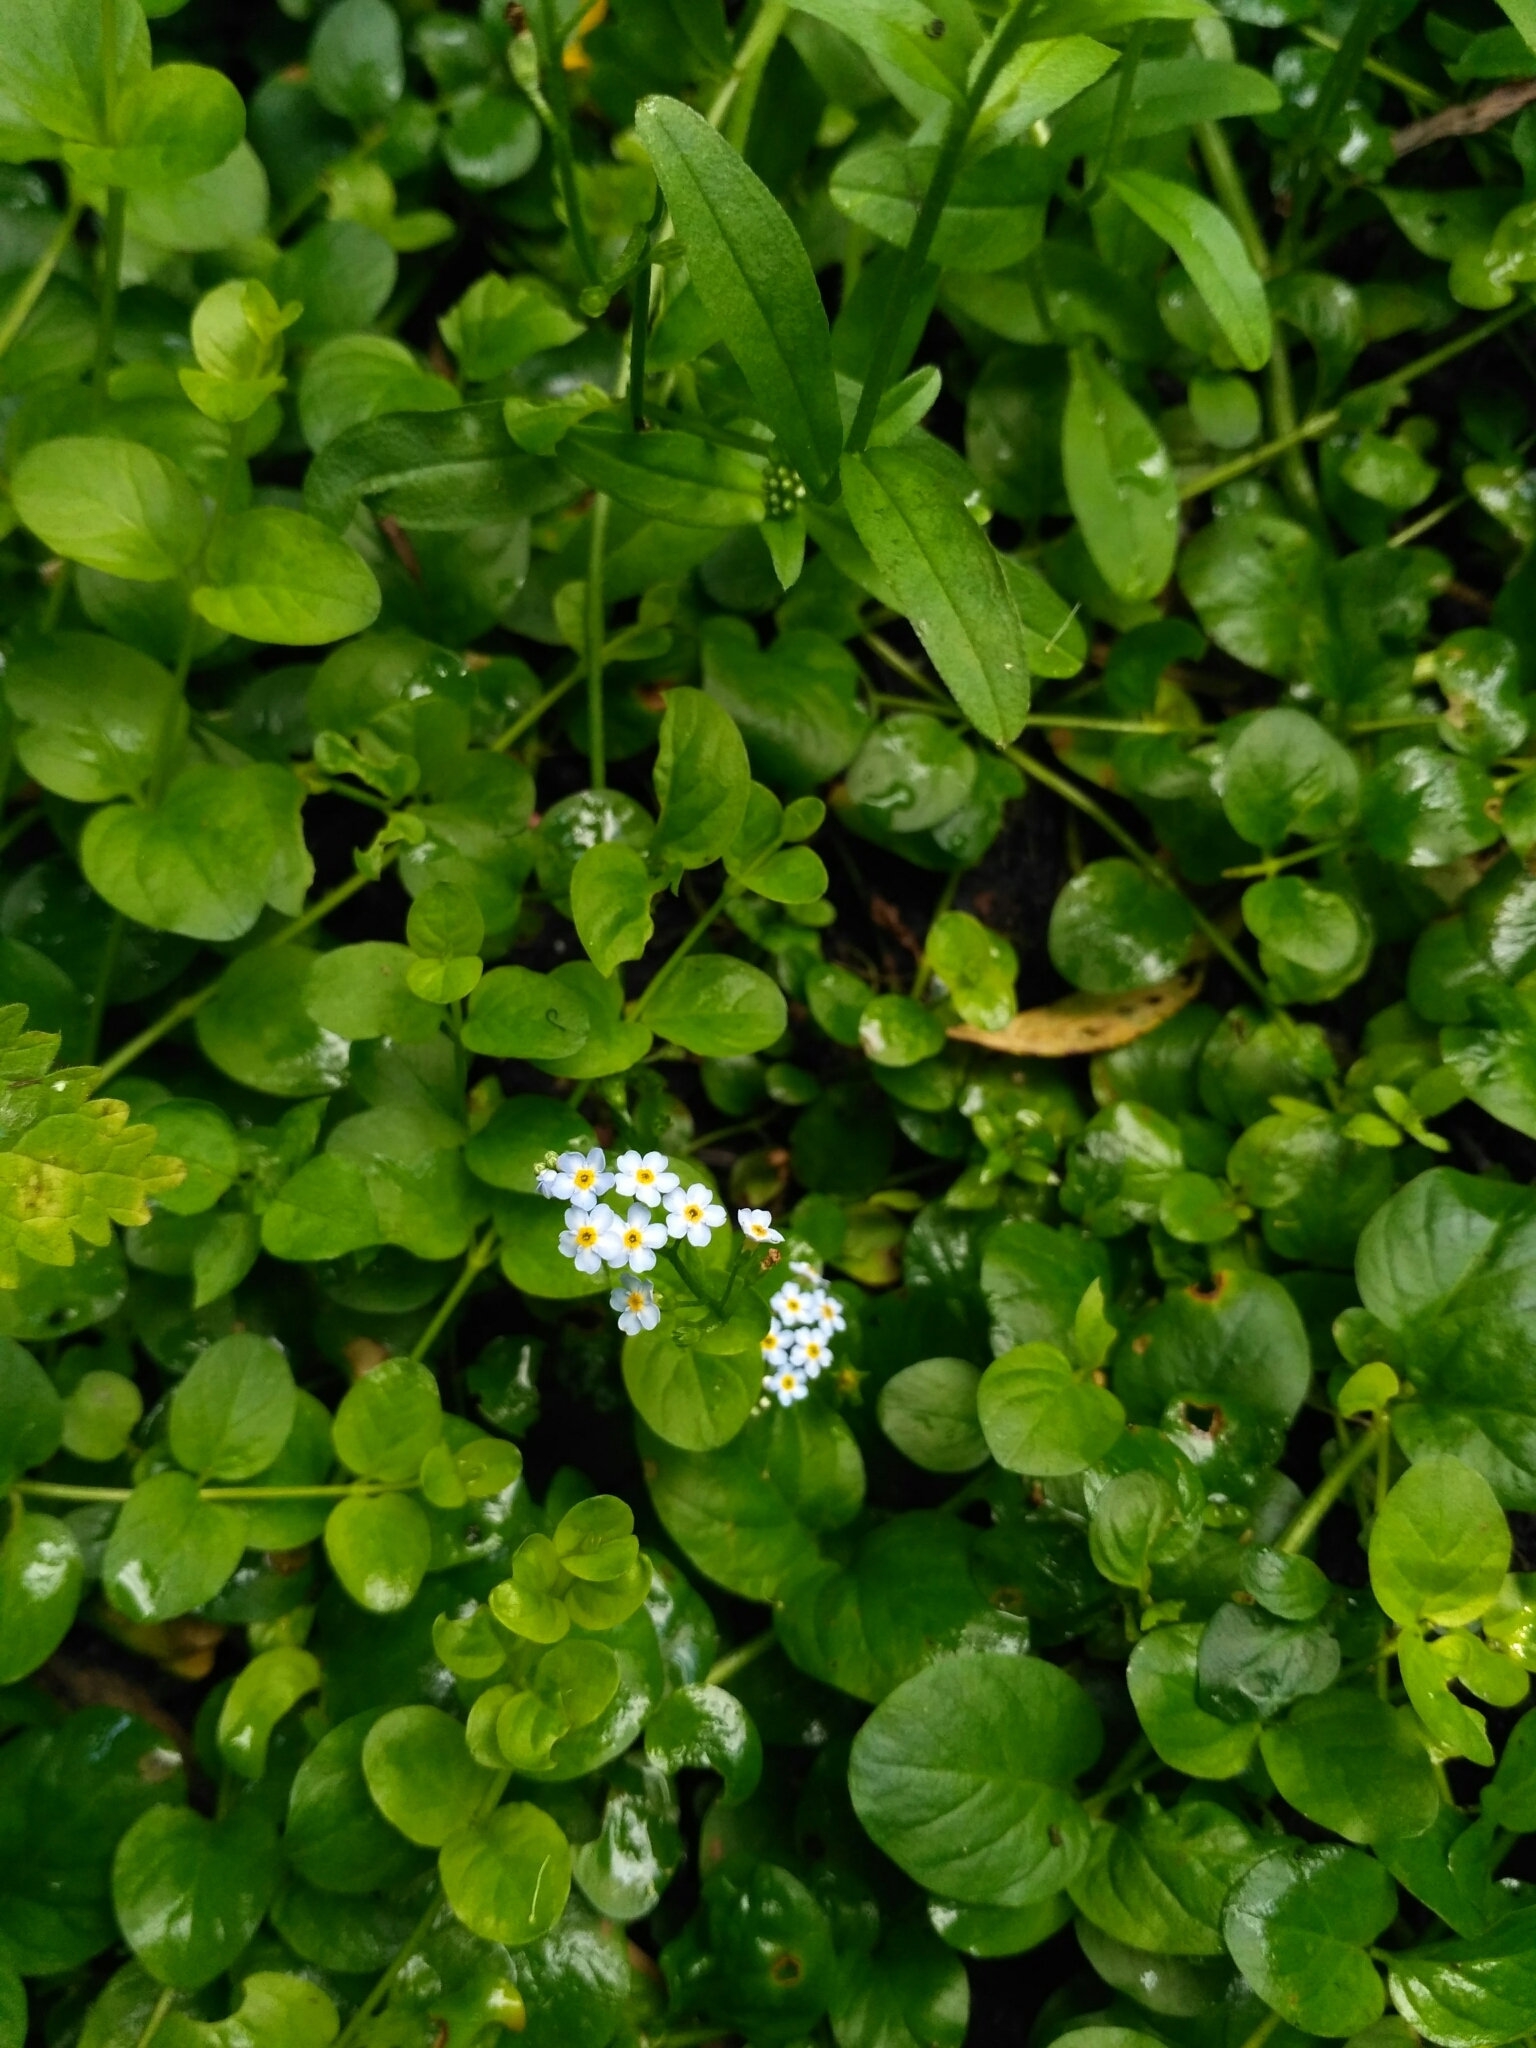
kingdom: Plantae
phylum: Tracheophyta
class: Magnoliopsida
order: Boraginales
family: Boraginaceae
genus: Myosotis
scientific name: Myosotis scorpioides
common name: Water forget-me-not
